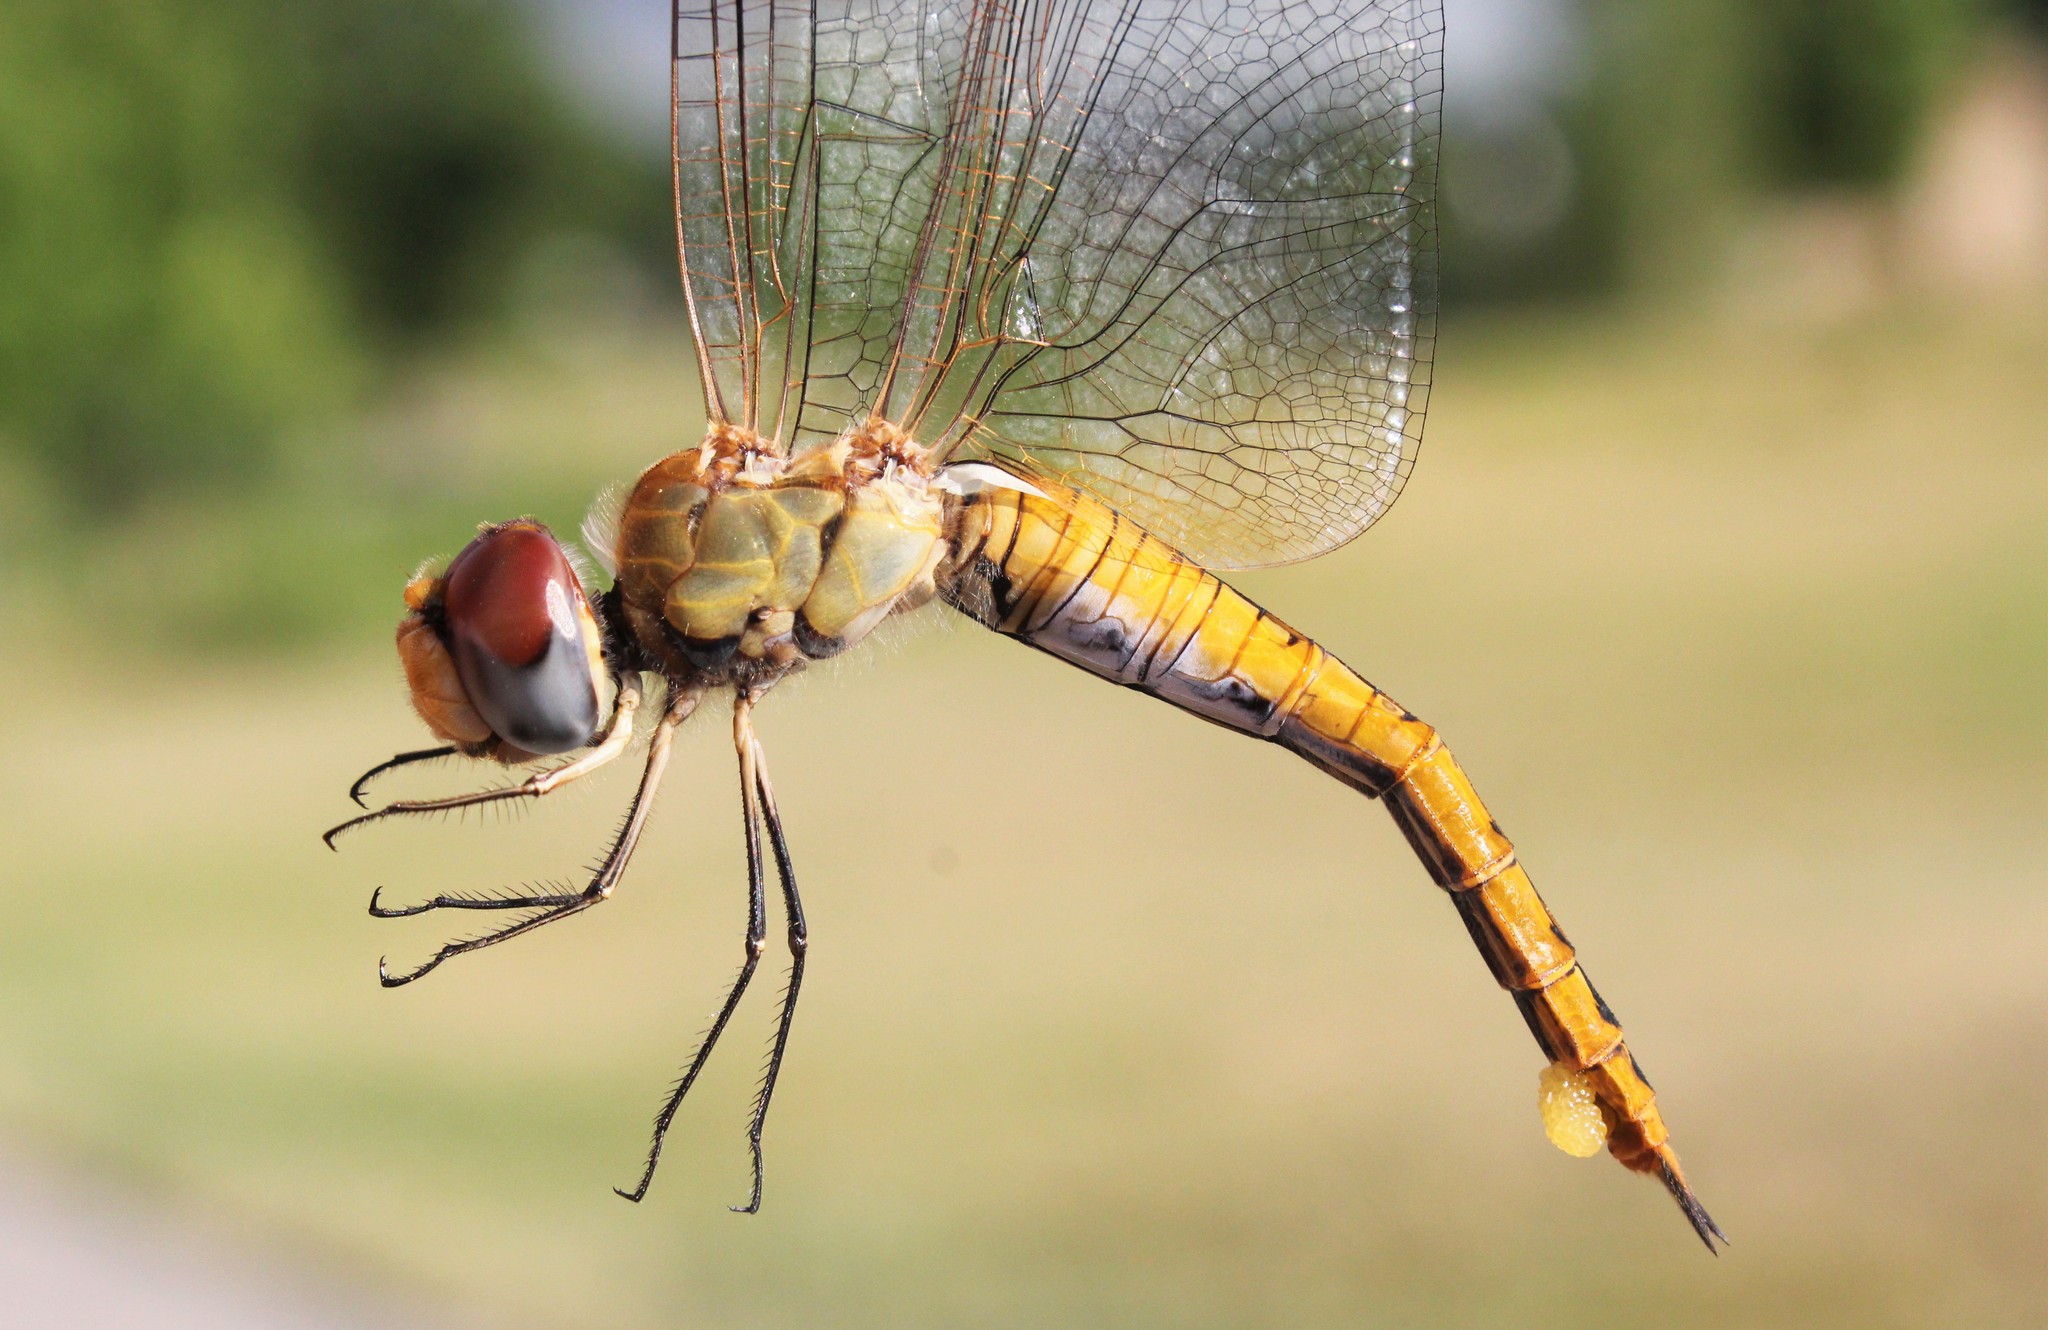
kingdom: Animalia
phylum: Arthropoda
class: Insecta
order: Odonata
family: Libellulidae
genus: Pantala
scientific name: Pantala flavescens
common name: Wandering glider
